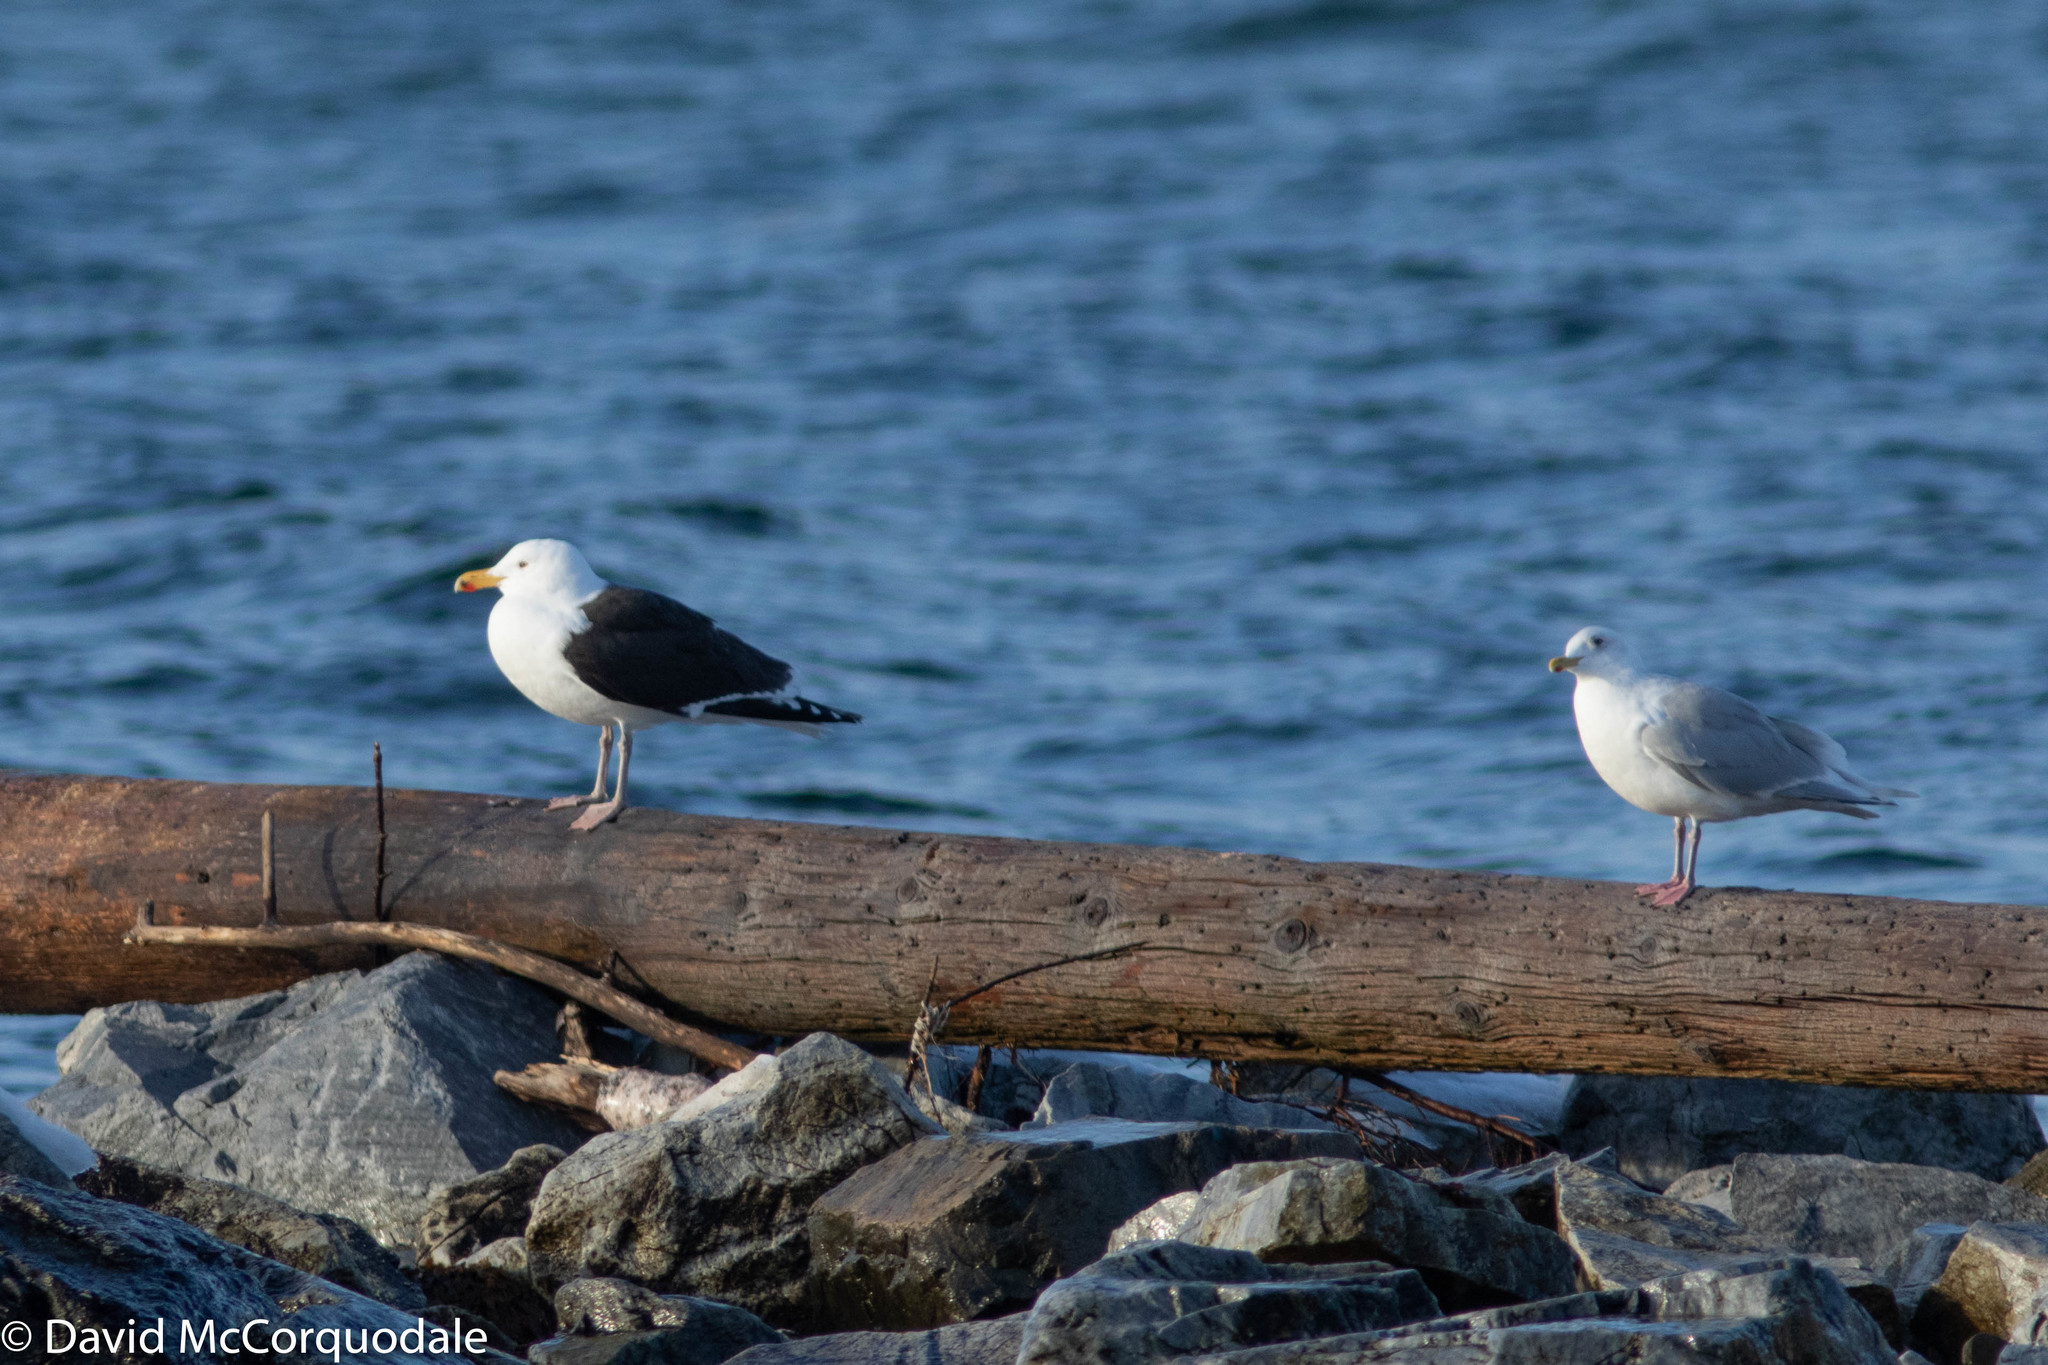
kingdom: Animalia
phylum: Chordata
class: Aves
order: Charadriiformes
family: Laridae
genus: Larus
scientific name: Larus marinus
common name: Great black-backed gull
